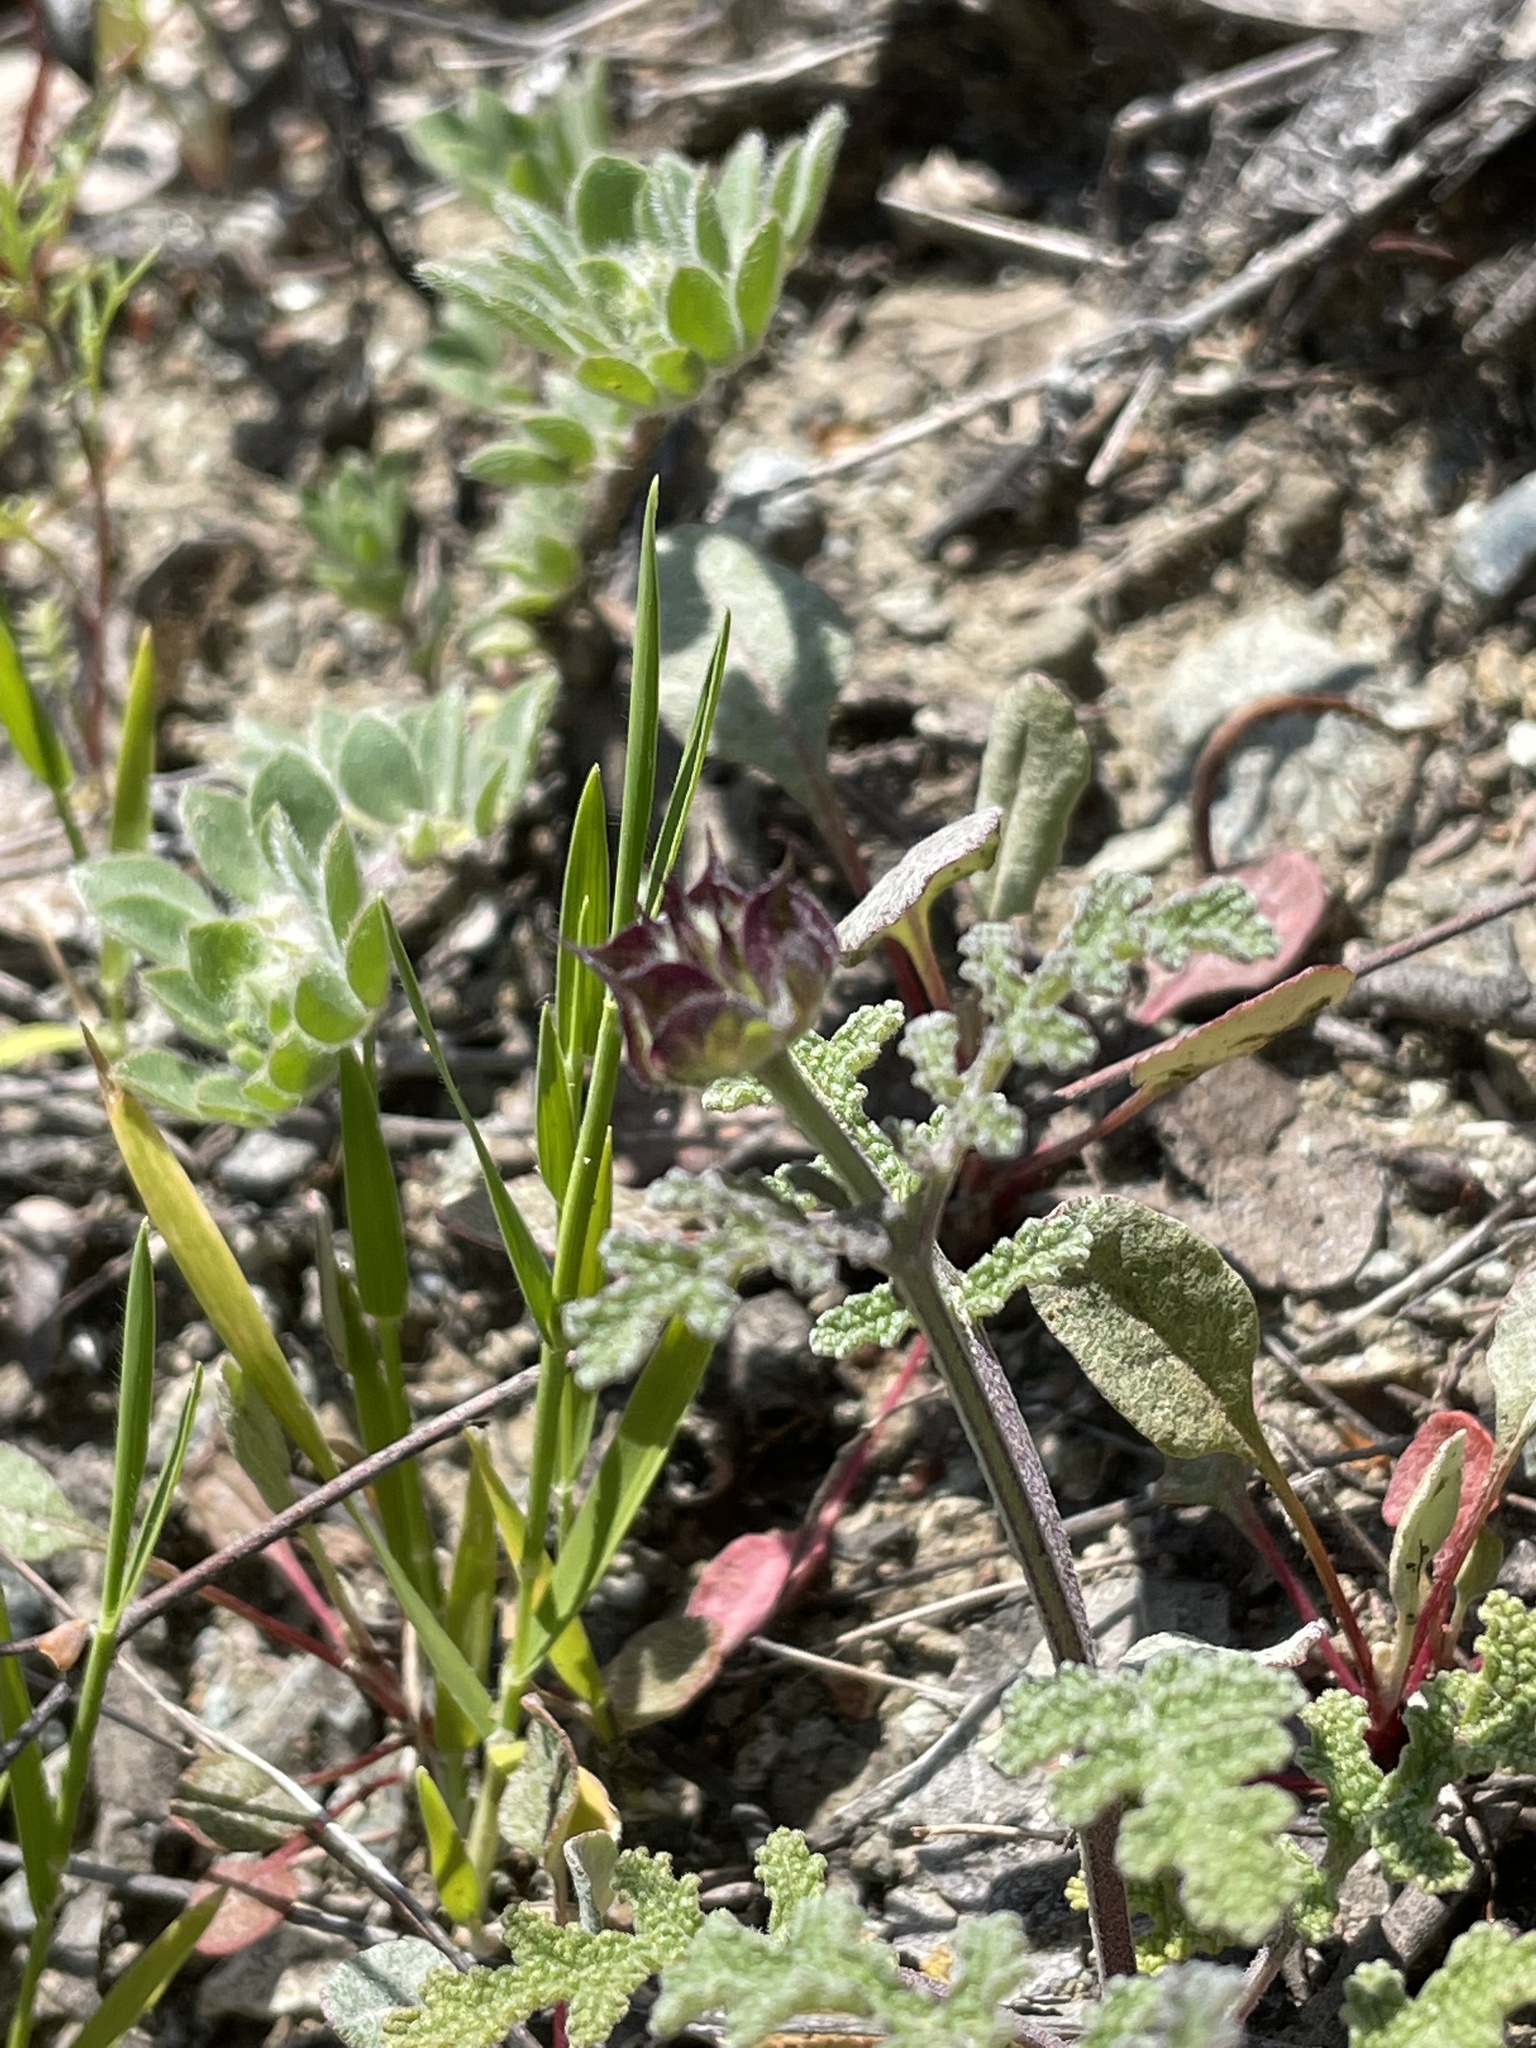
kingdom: Plantae
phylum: Tracheophyta
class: Magnoliopsida
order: Lamiales
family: Lamiaceae
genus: Salvia
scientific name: Salvia columbariae
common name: Chia
